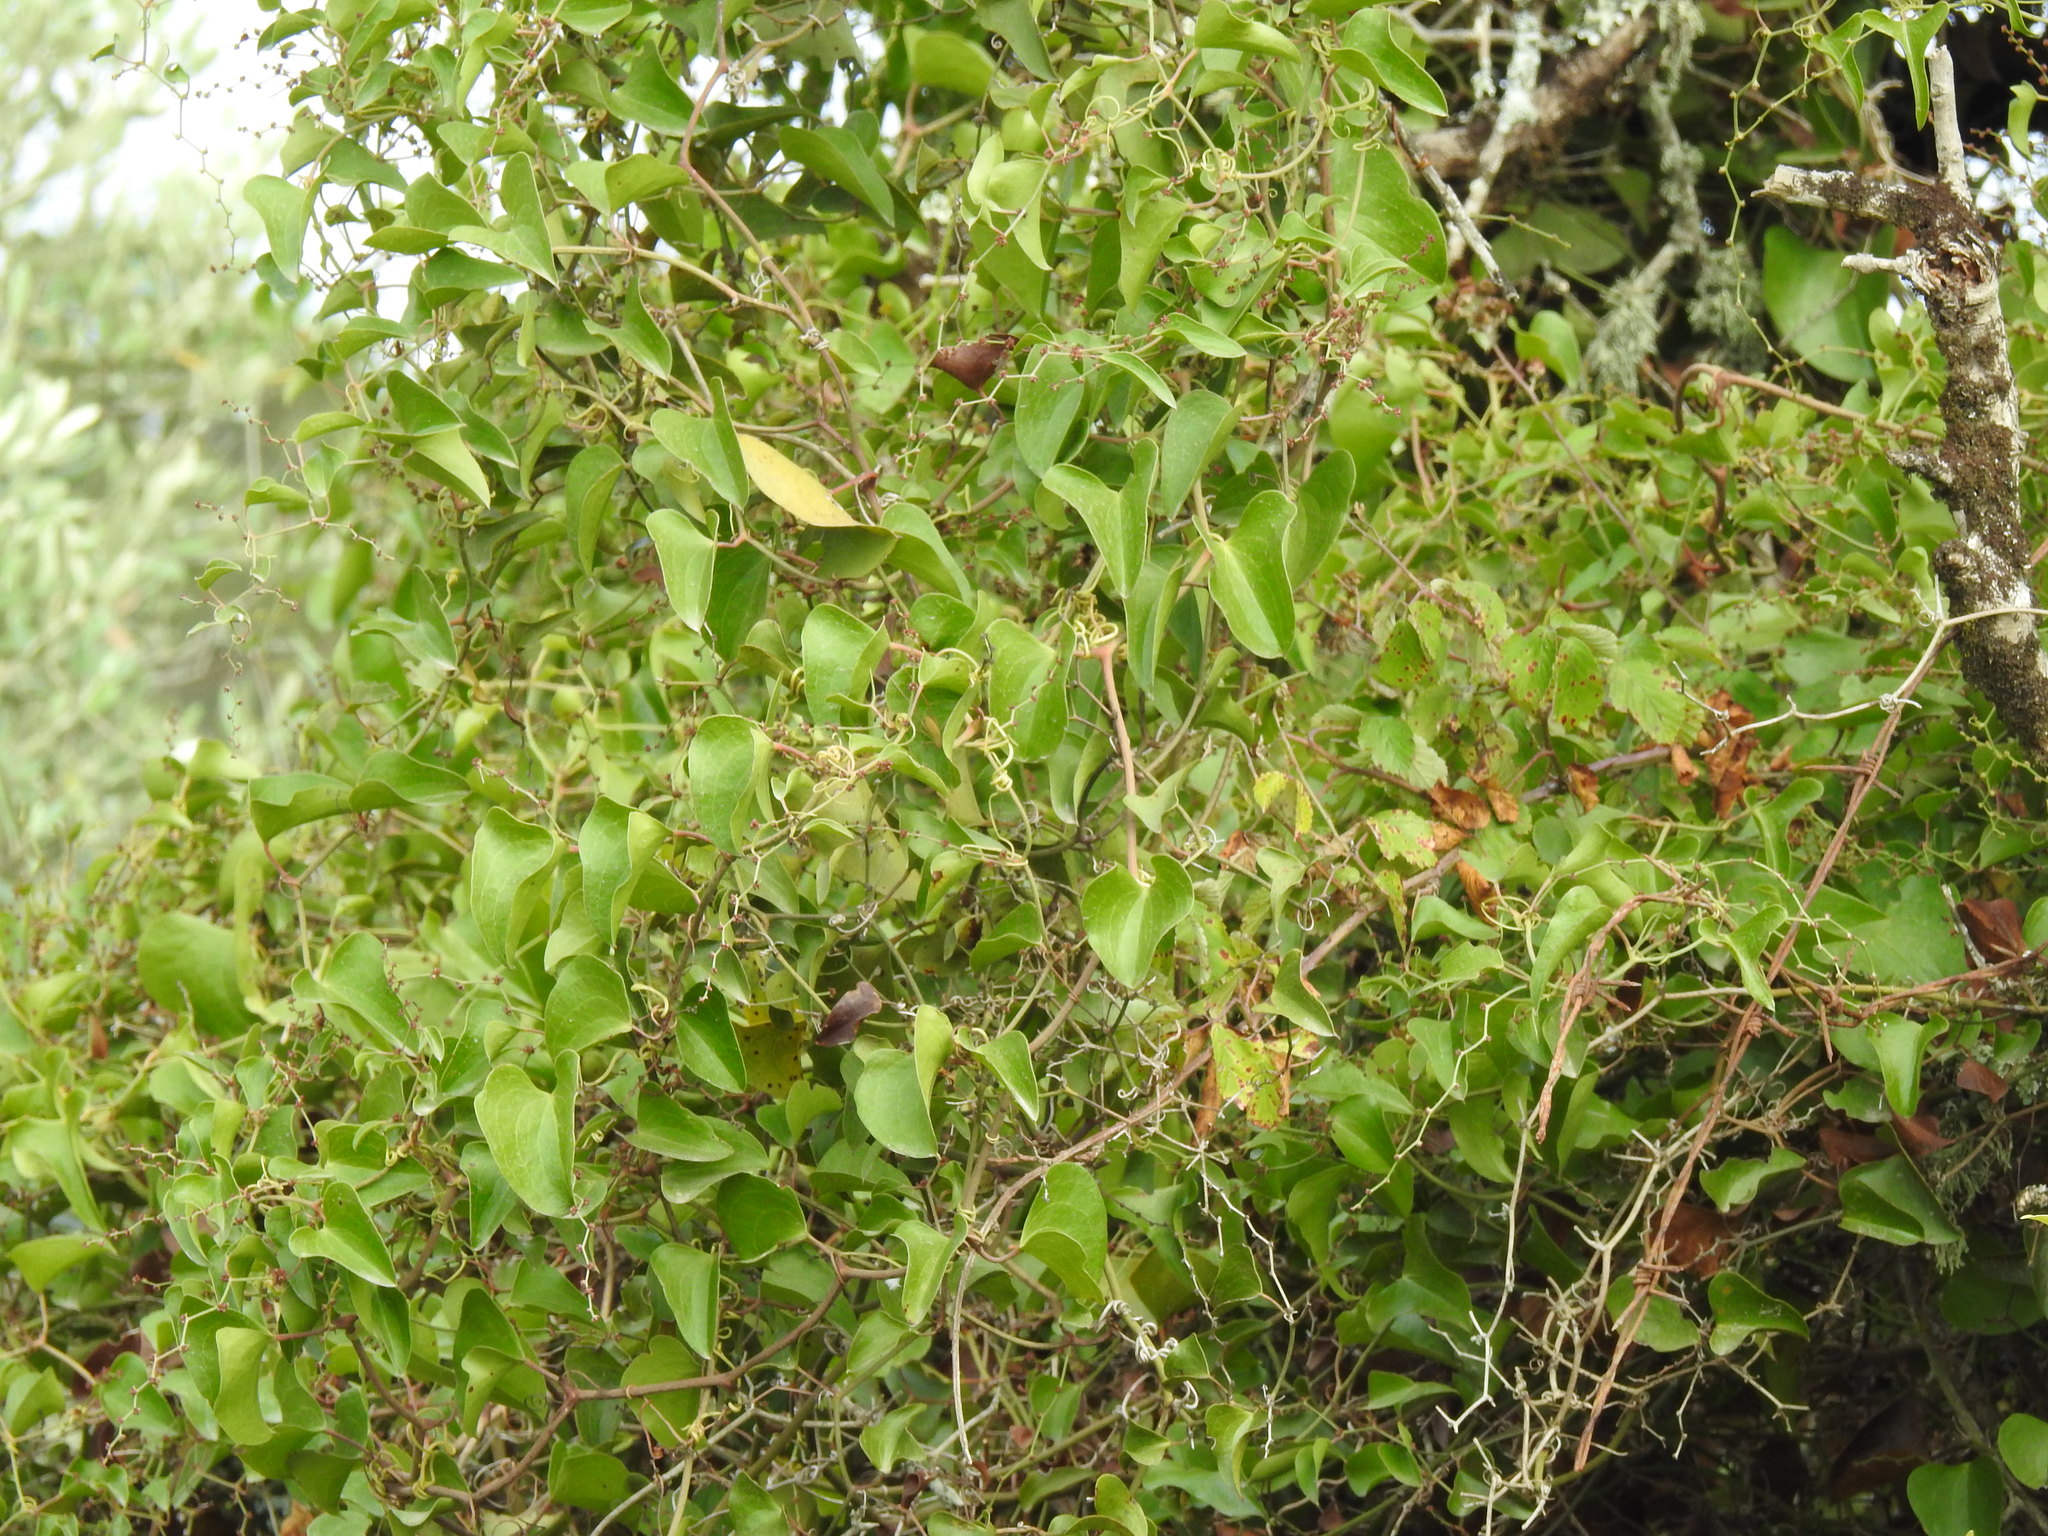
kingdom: Plantae
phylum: Tracheophyta
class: Liliopsida
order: Liliales
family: Smilacaceae
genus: Smilax
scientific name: Smilax aspera
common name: Common smilax
